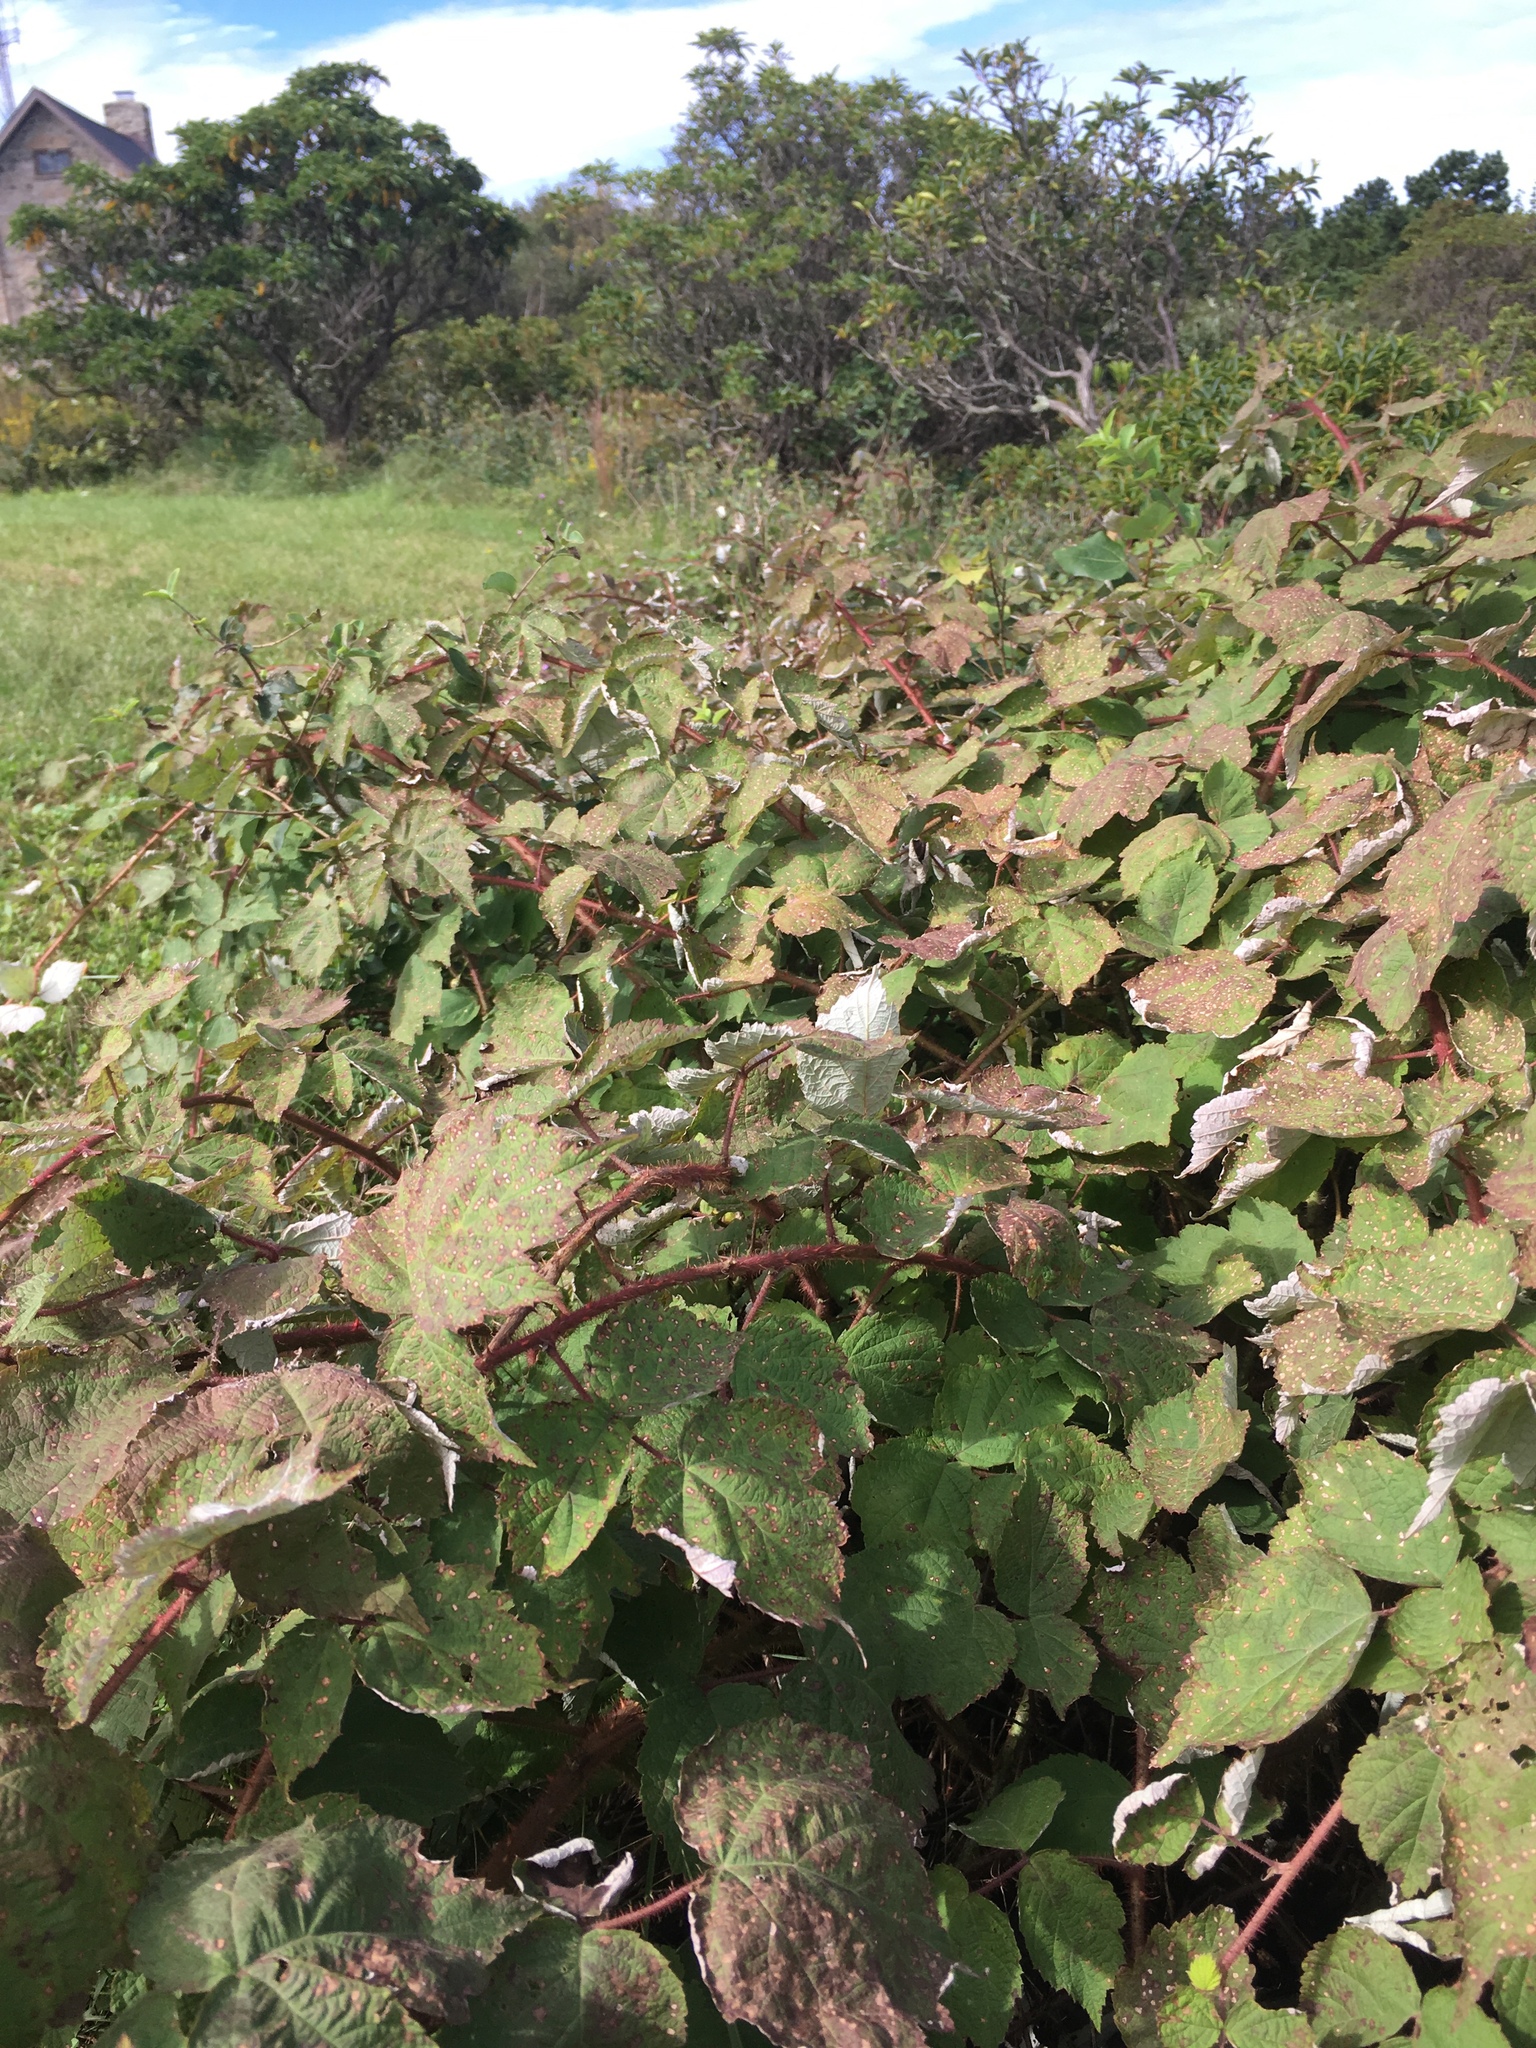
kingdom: Plantae
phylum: Tracheophyta
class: Magnoliopsida
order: Rosales
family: Rosaceae
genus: Rubus
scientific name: Rubus phoenicolasius
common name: Japanese wineberry
